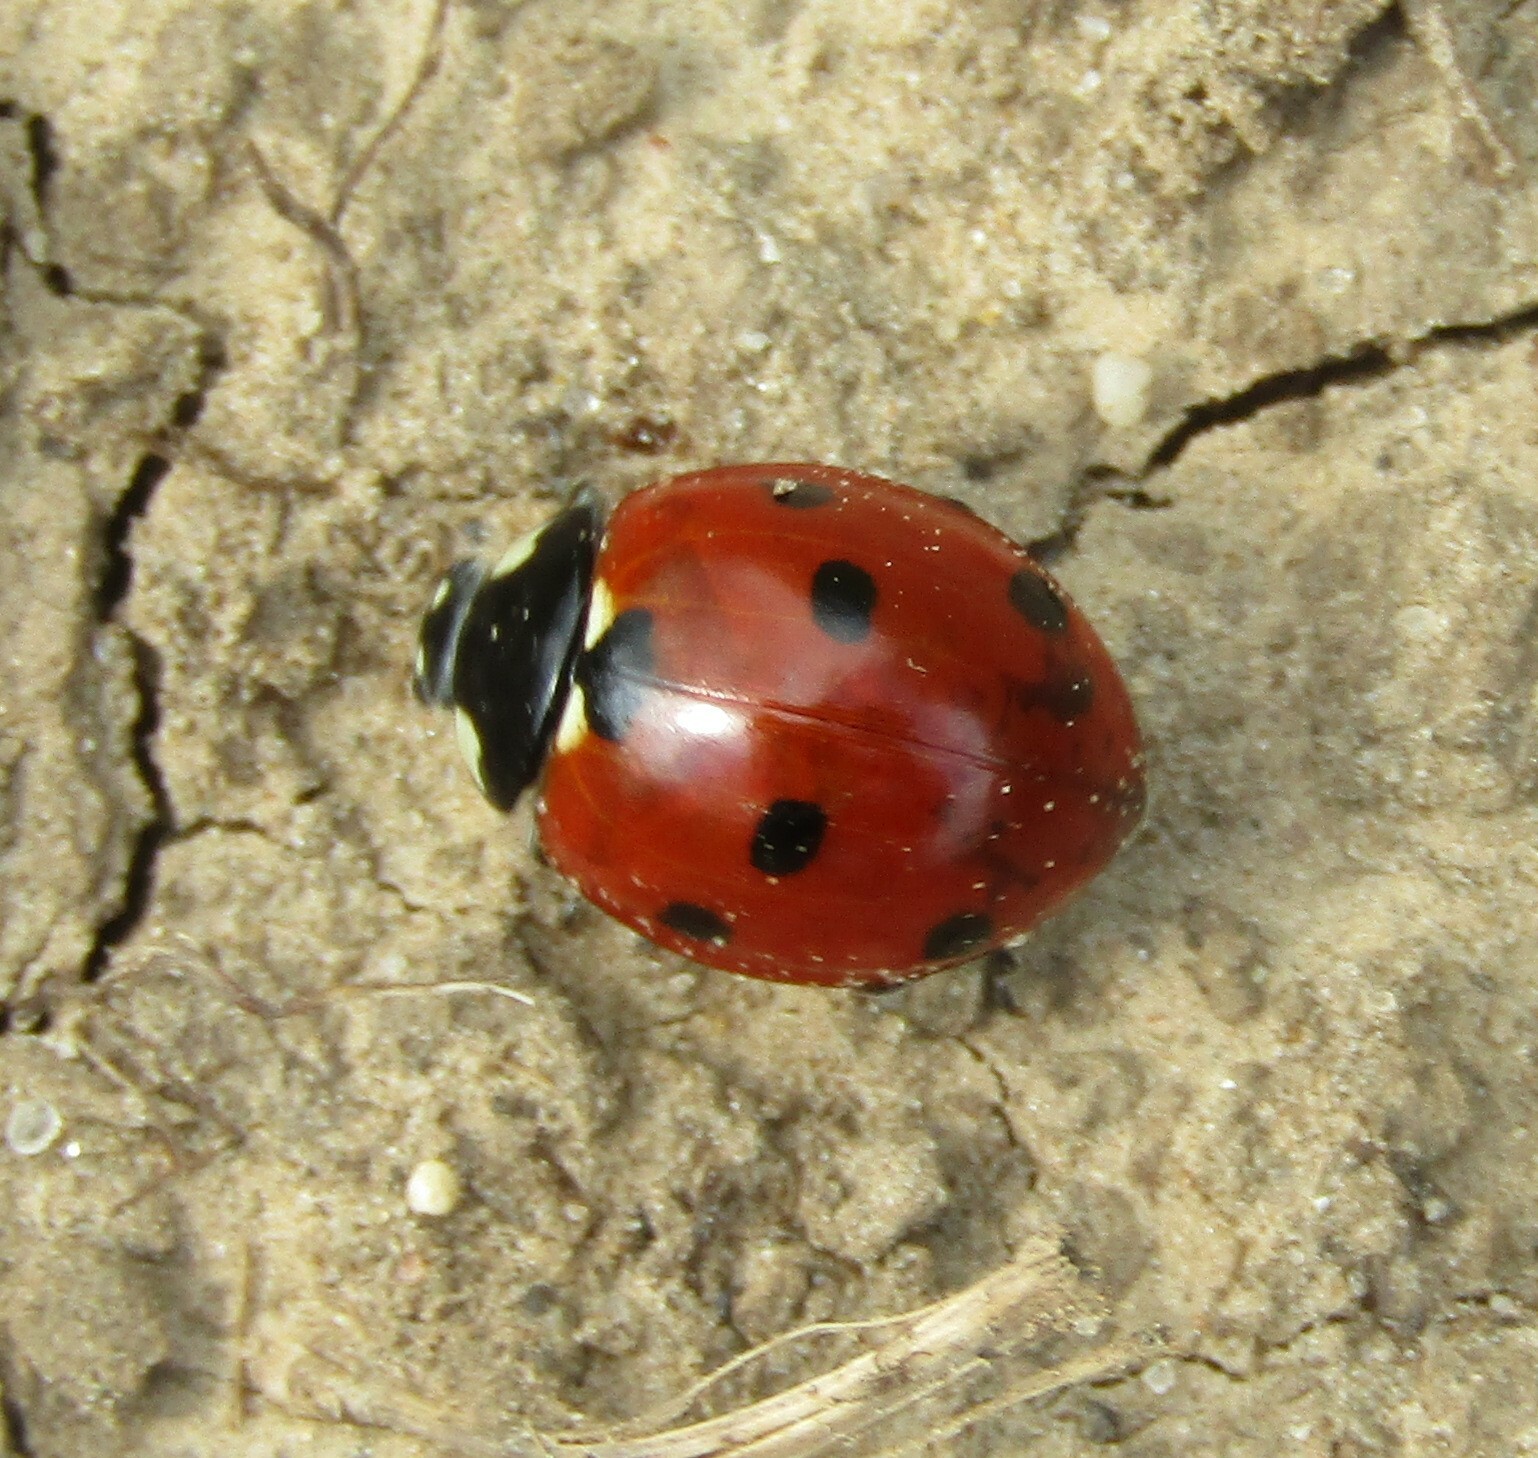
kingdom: Animalia
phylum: Arthropoda
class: Insecta
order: Coleoptera
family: Coccinellidae
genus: Coccinella
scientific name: Coccinella septempunctata
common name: Sevenspotted lady beetle
